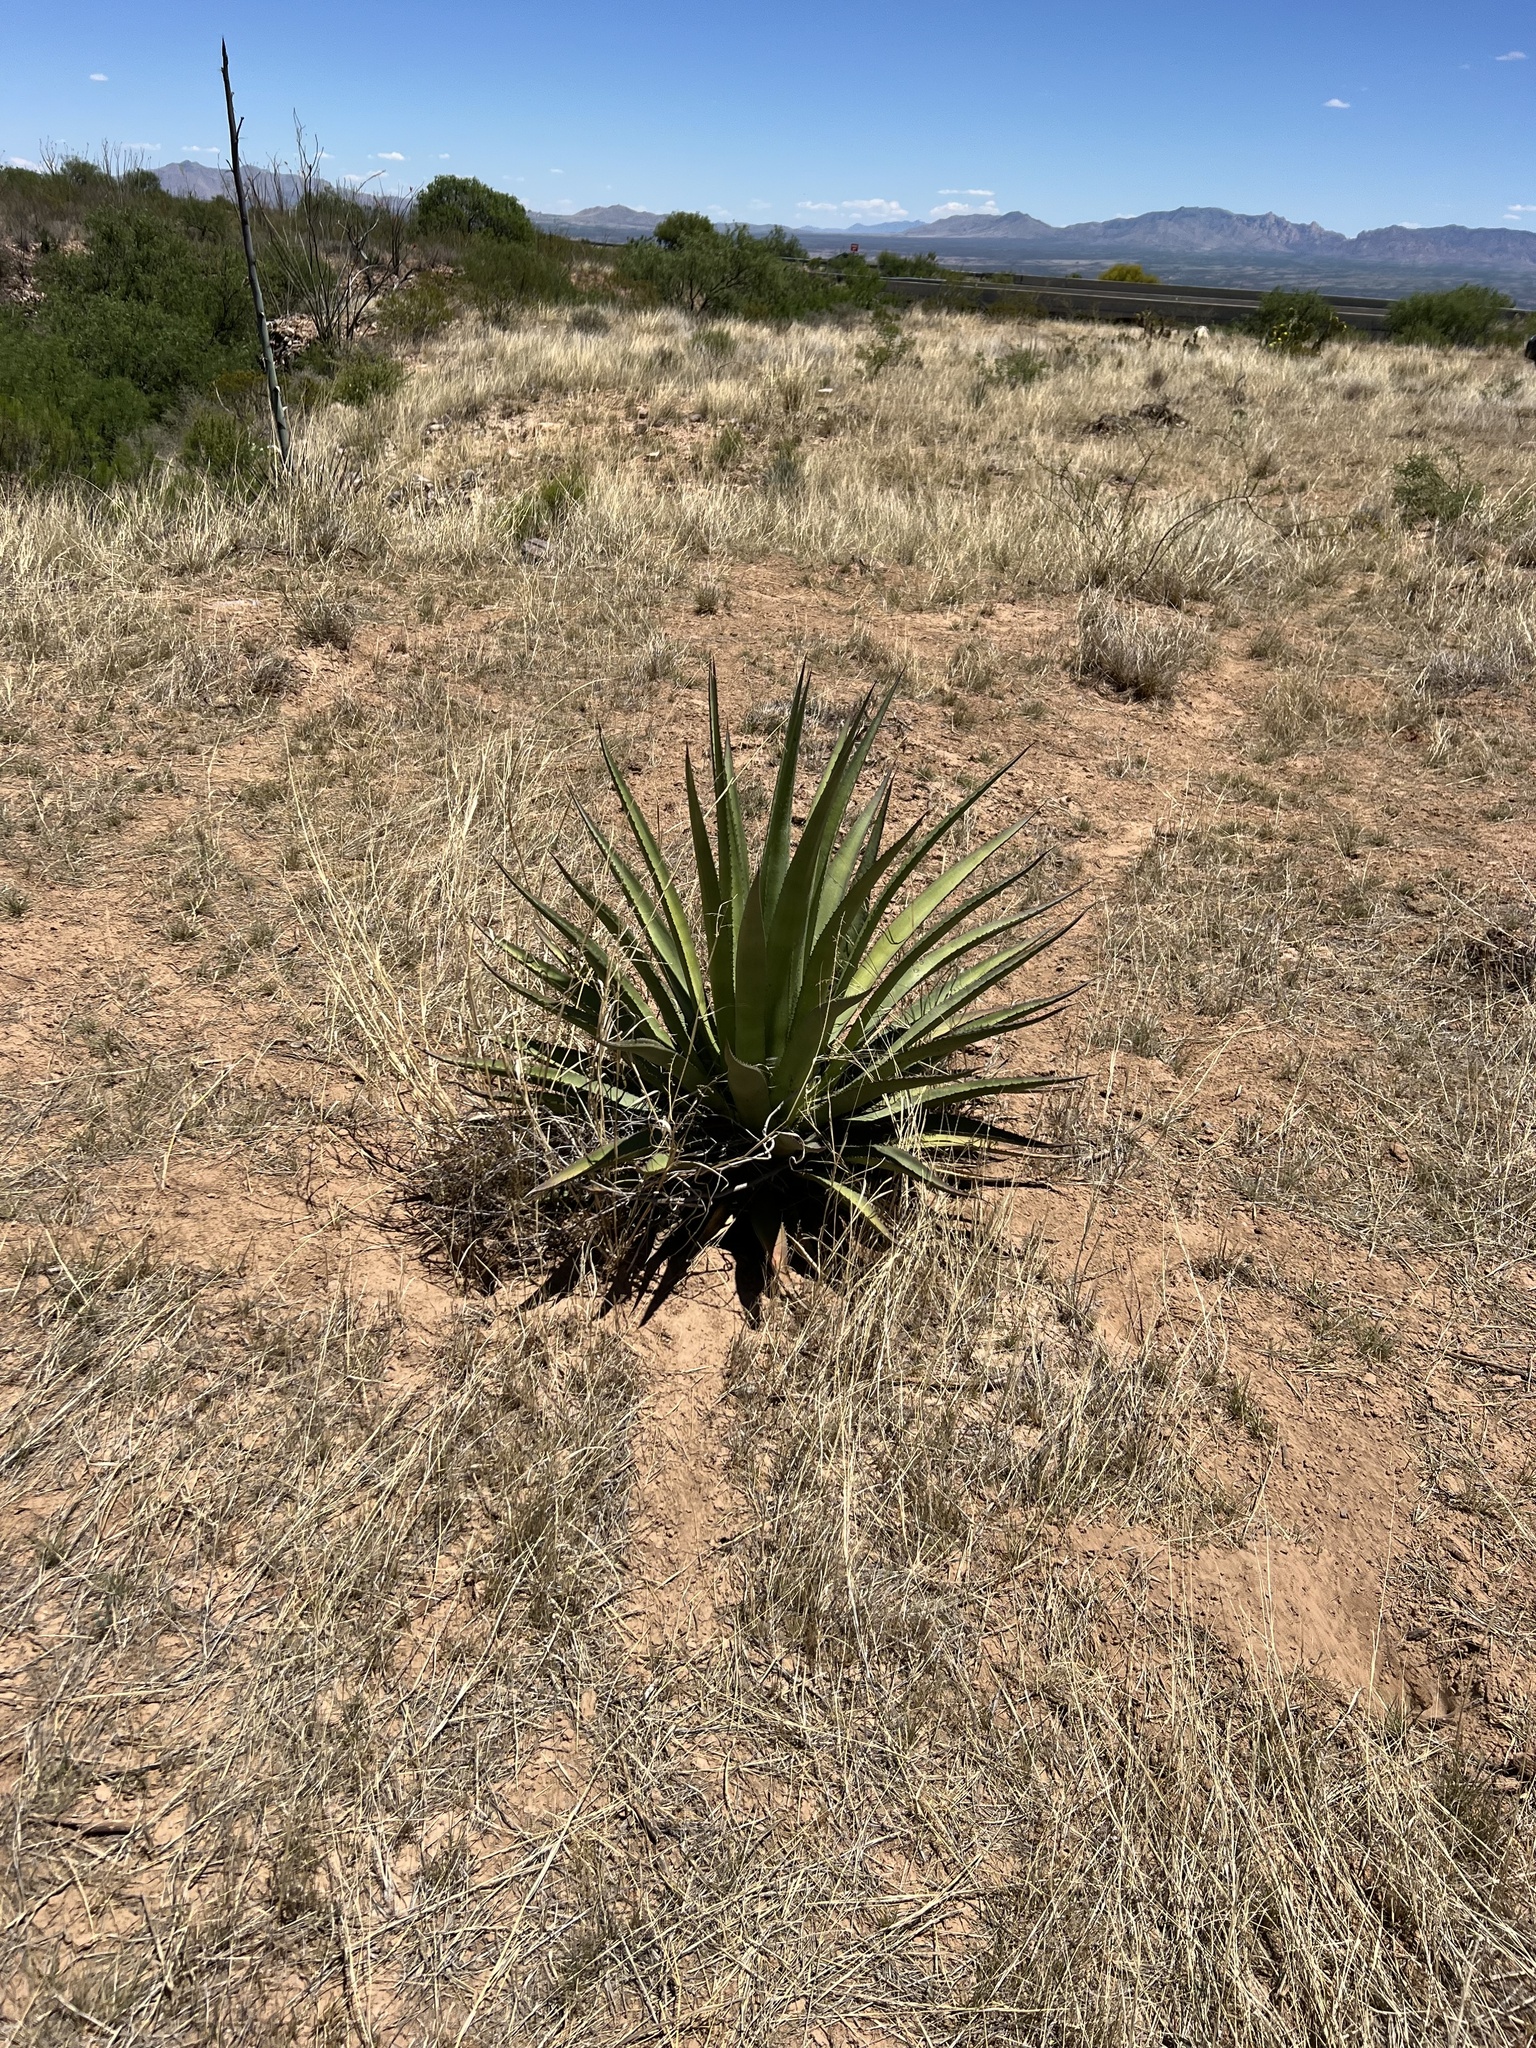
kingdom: Plantae
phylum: Tracheophyta
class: Liliopsida
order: Asparagales
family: Asparagaceae
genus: Agave
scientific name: Agave palmeri
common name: Palmer agave
